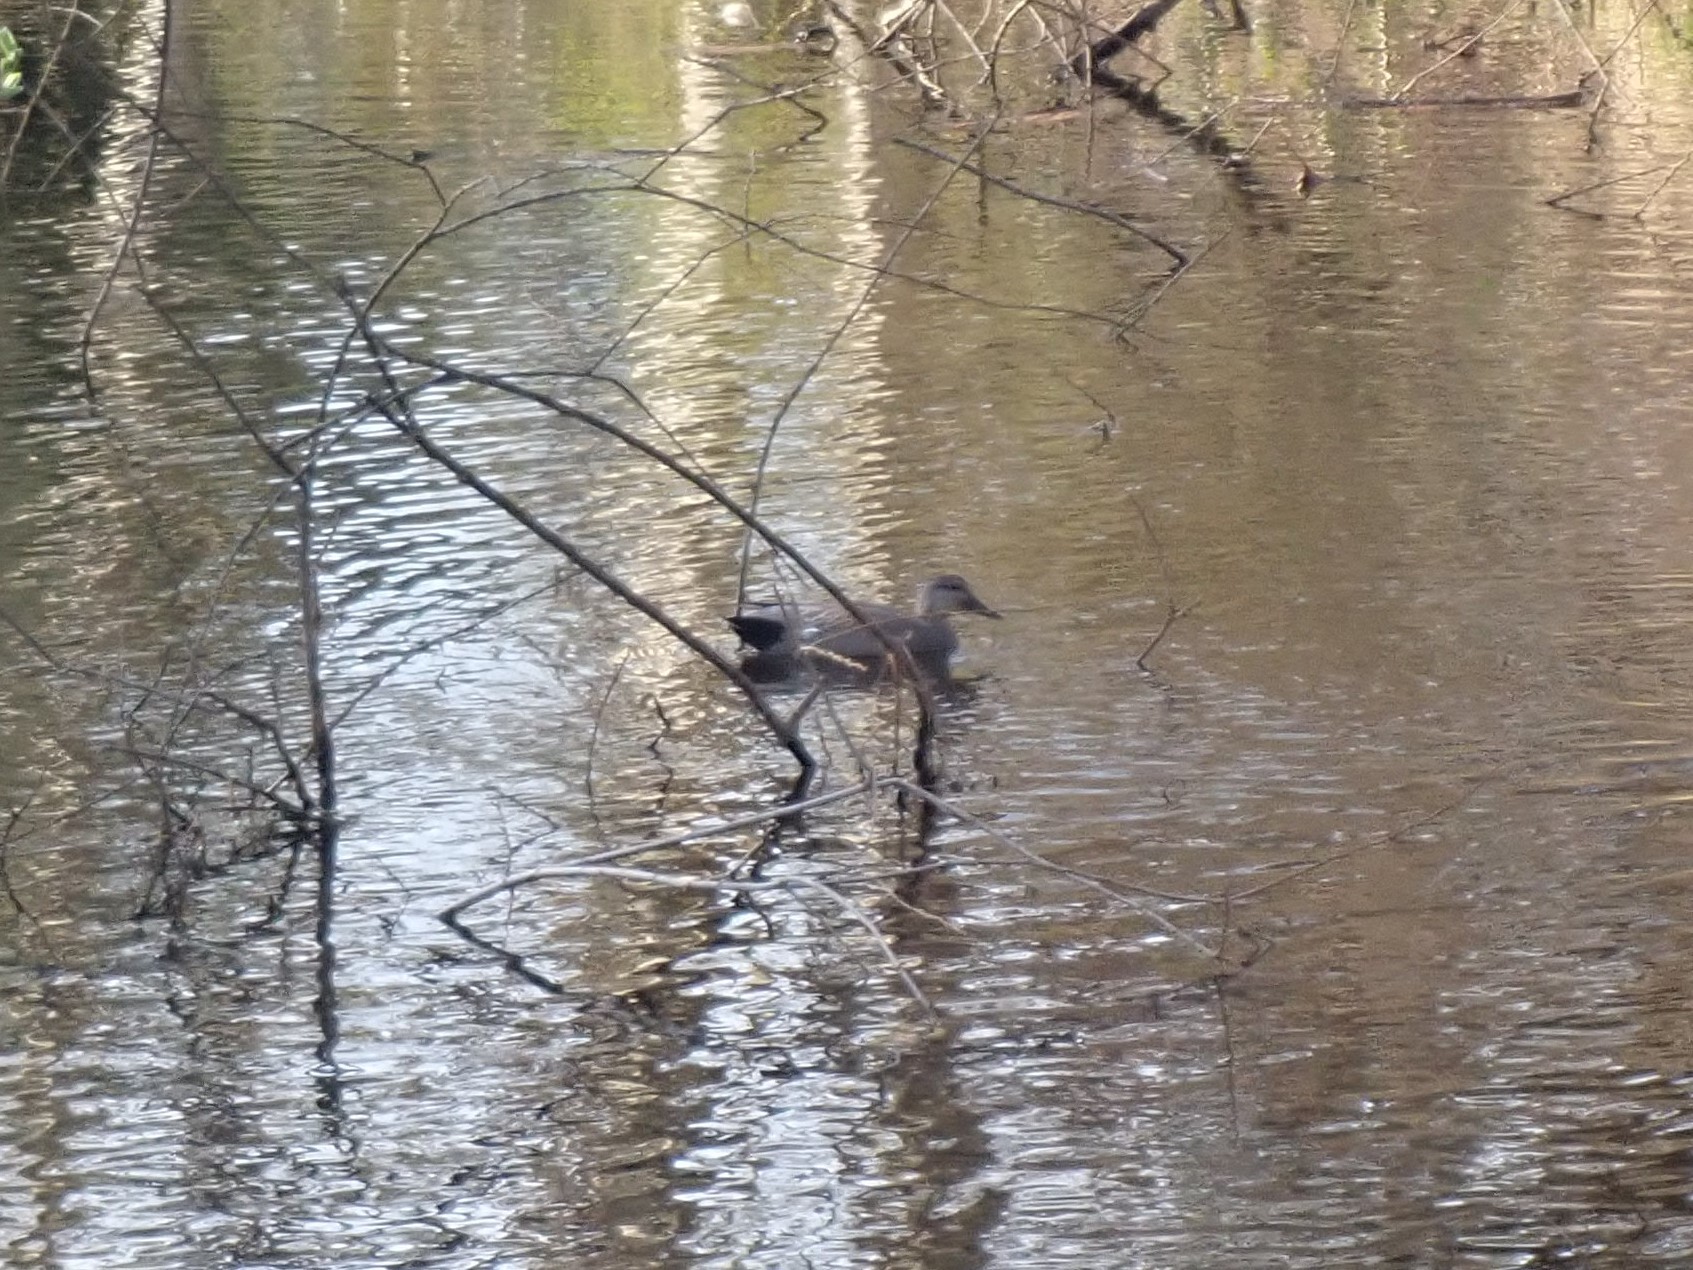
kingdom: Animalia
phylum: Chordata
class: Aves
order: Anseriformes
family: Anatidae
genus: Mareca
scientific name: Mareca strepera
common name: Gadwall
